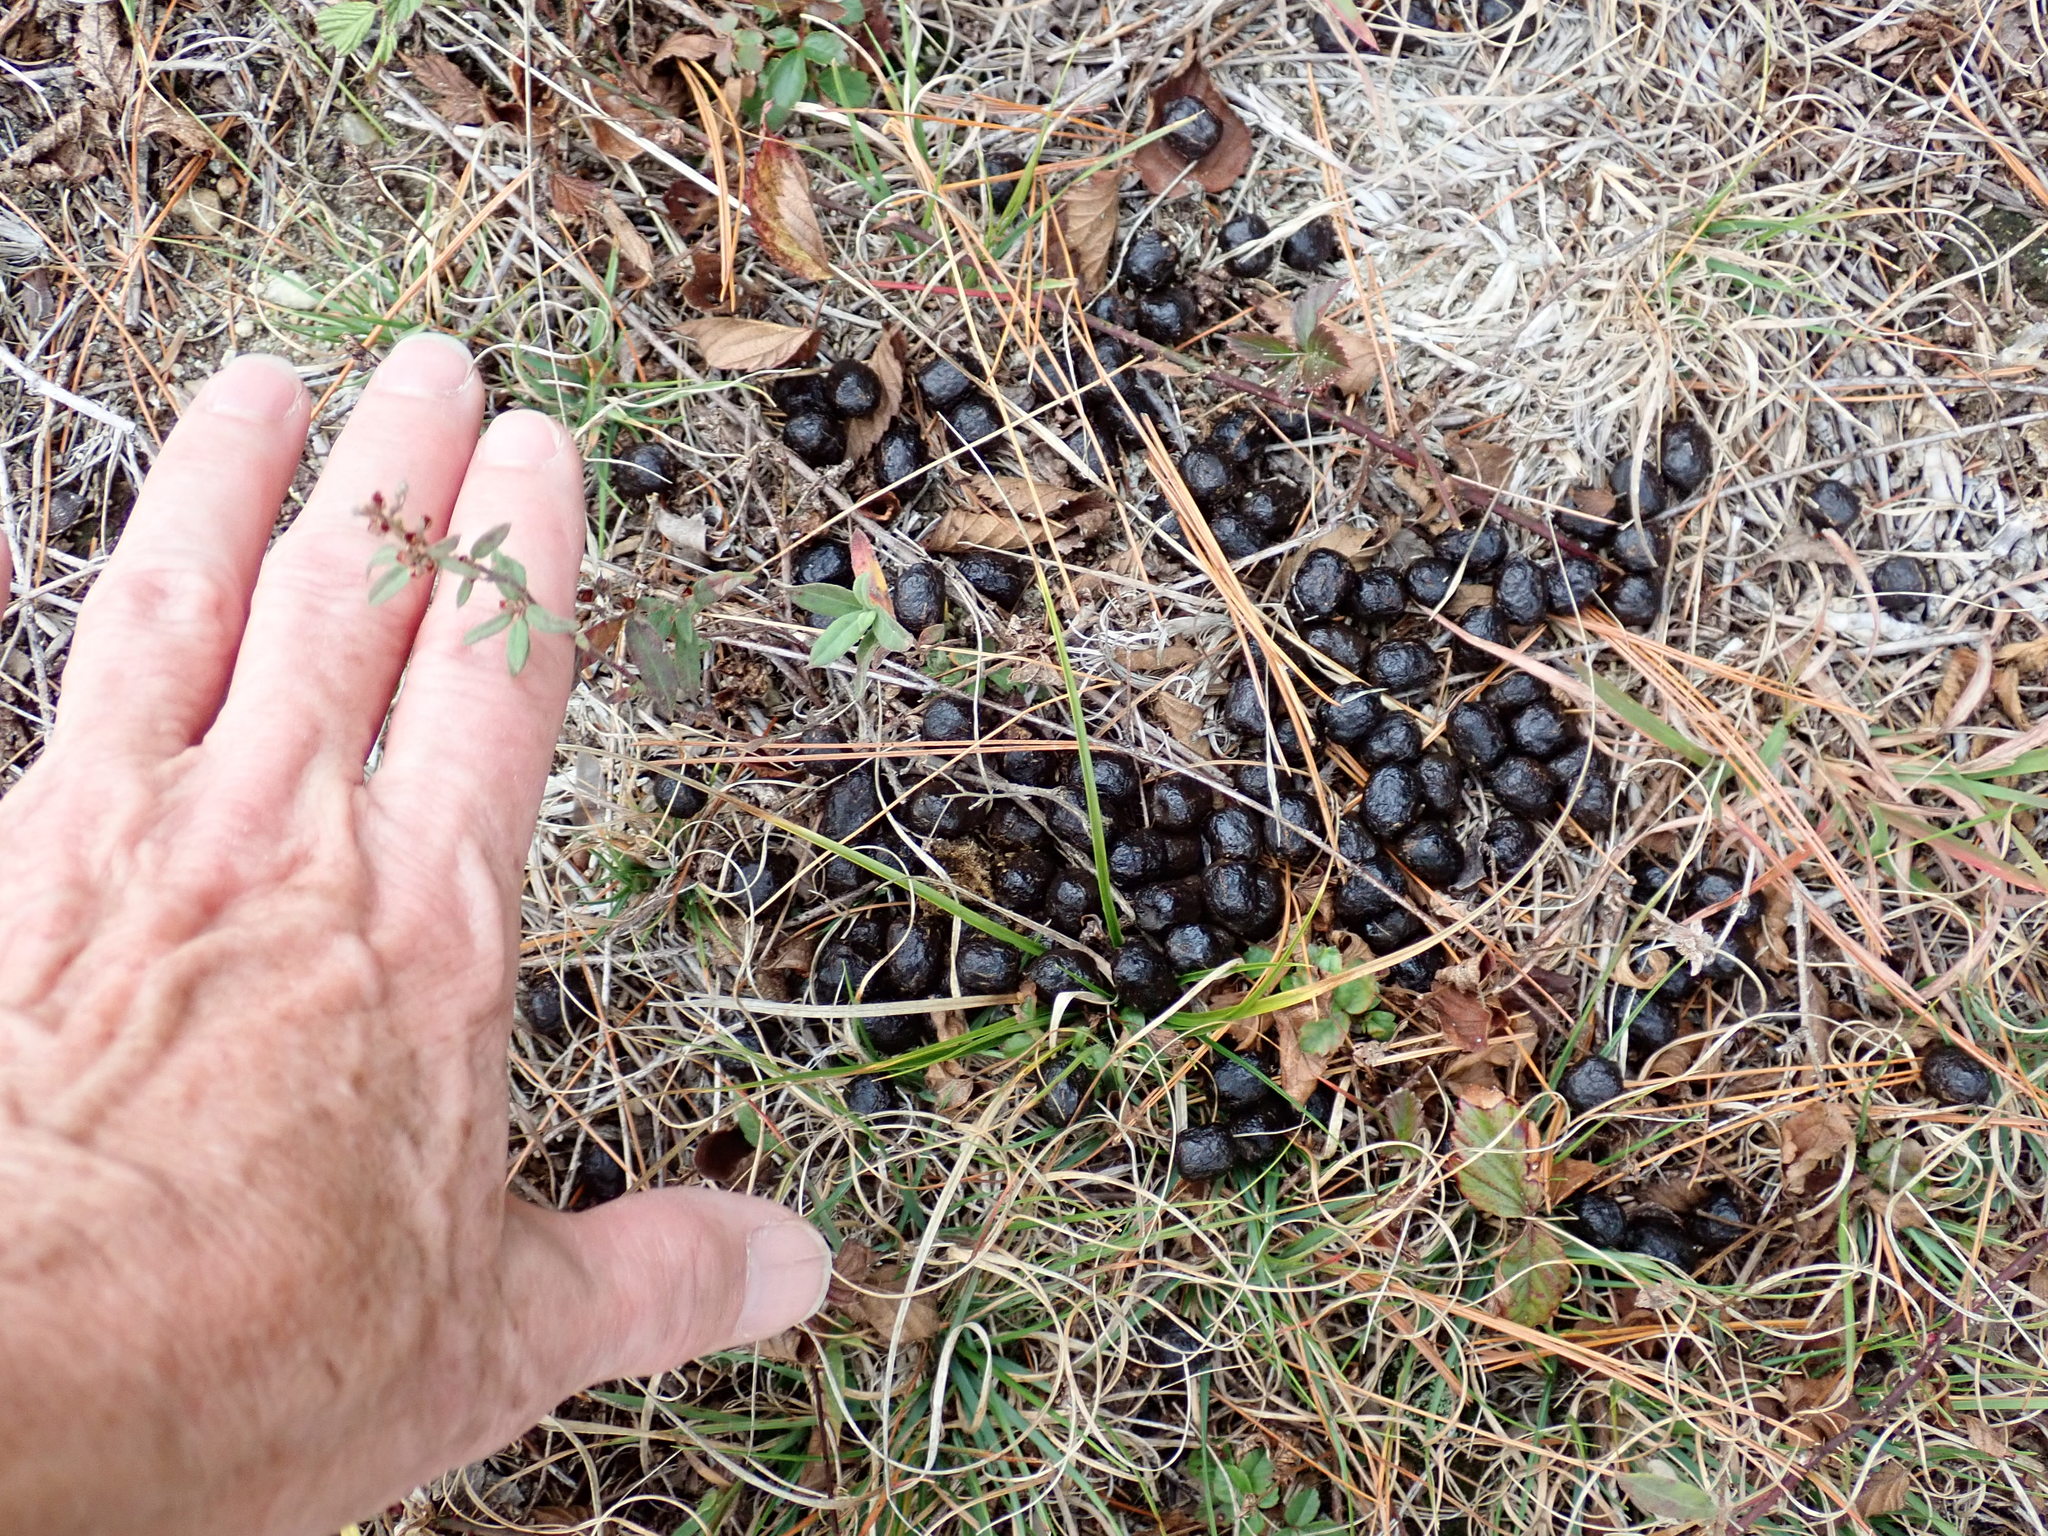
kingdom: Animalia
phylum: Chordata
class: Mammalia
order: Artiodactyla
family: Cervidae
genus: Odocoileus
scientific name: Odocoileus virginianus
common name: White-tailed deer
